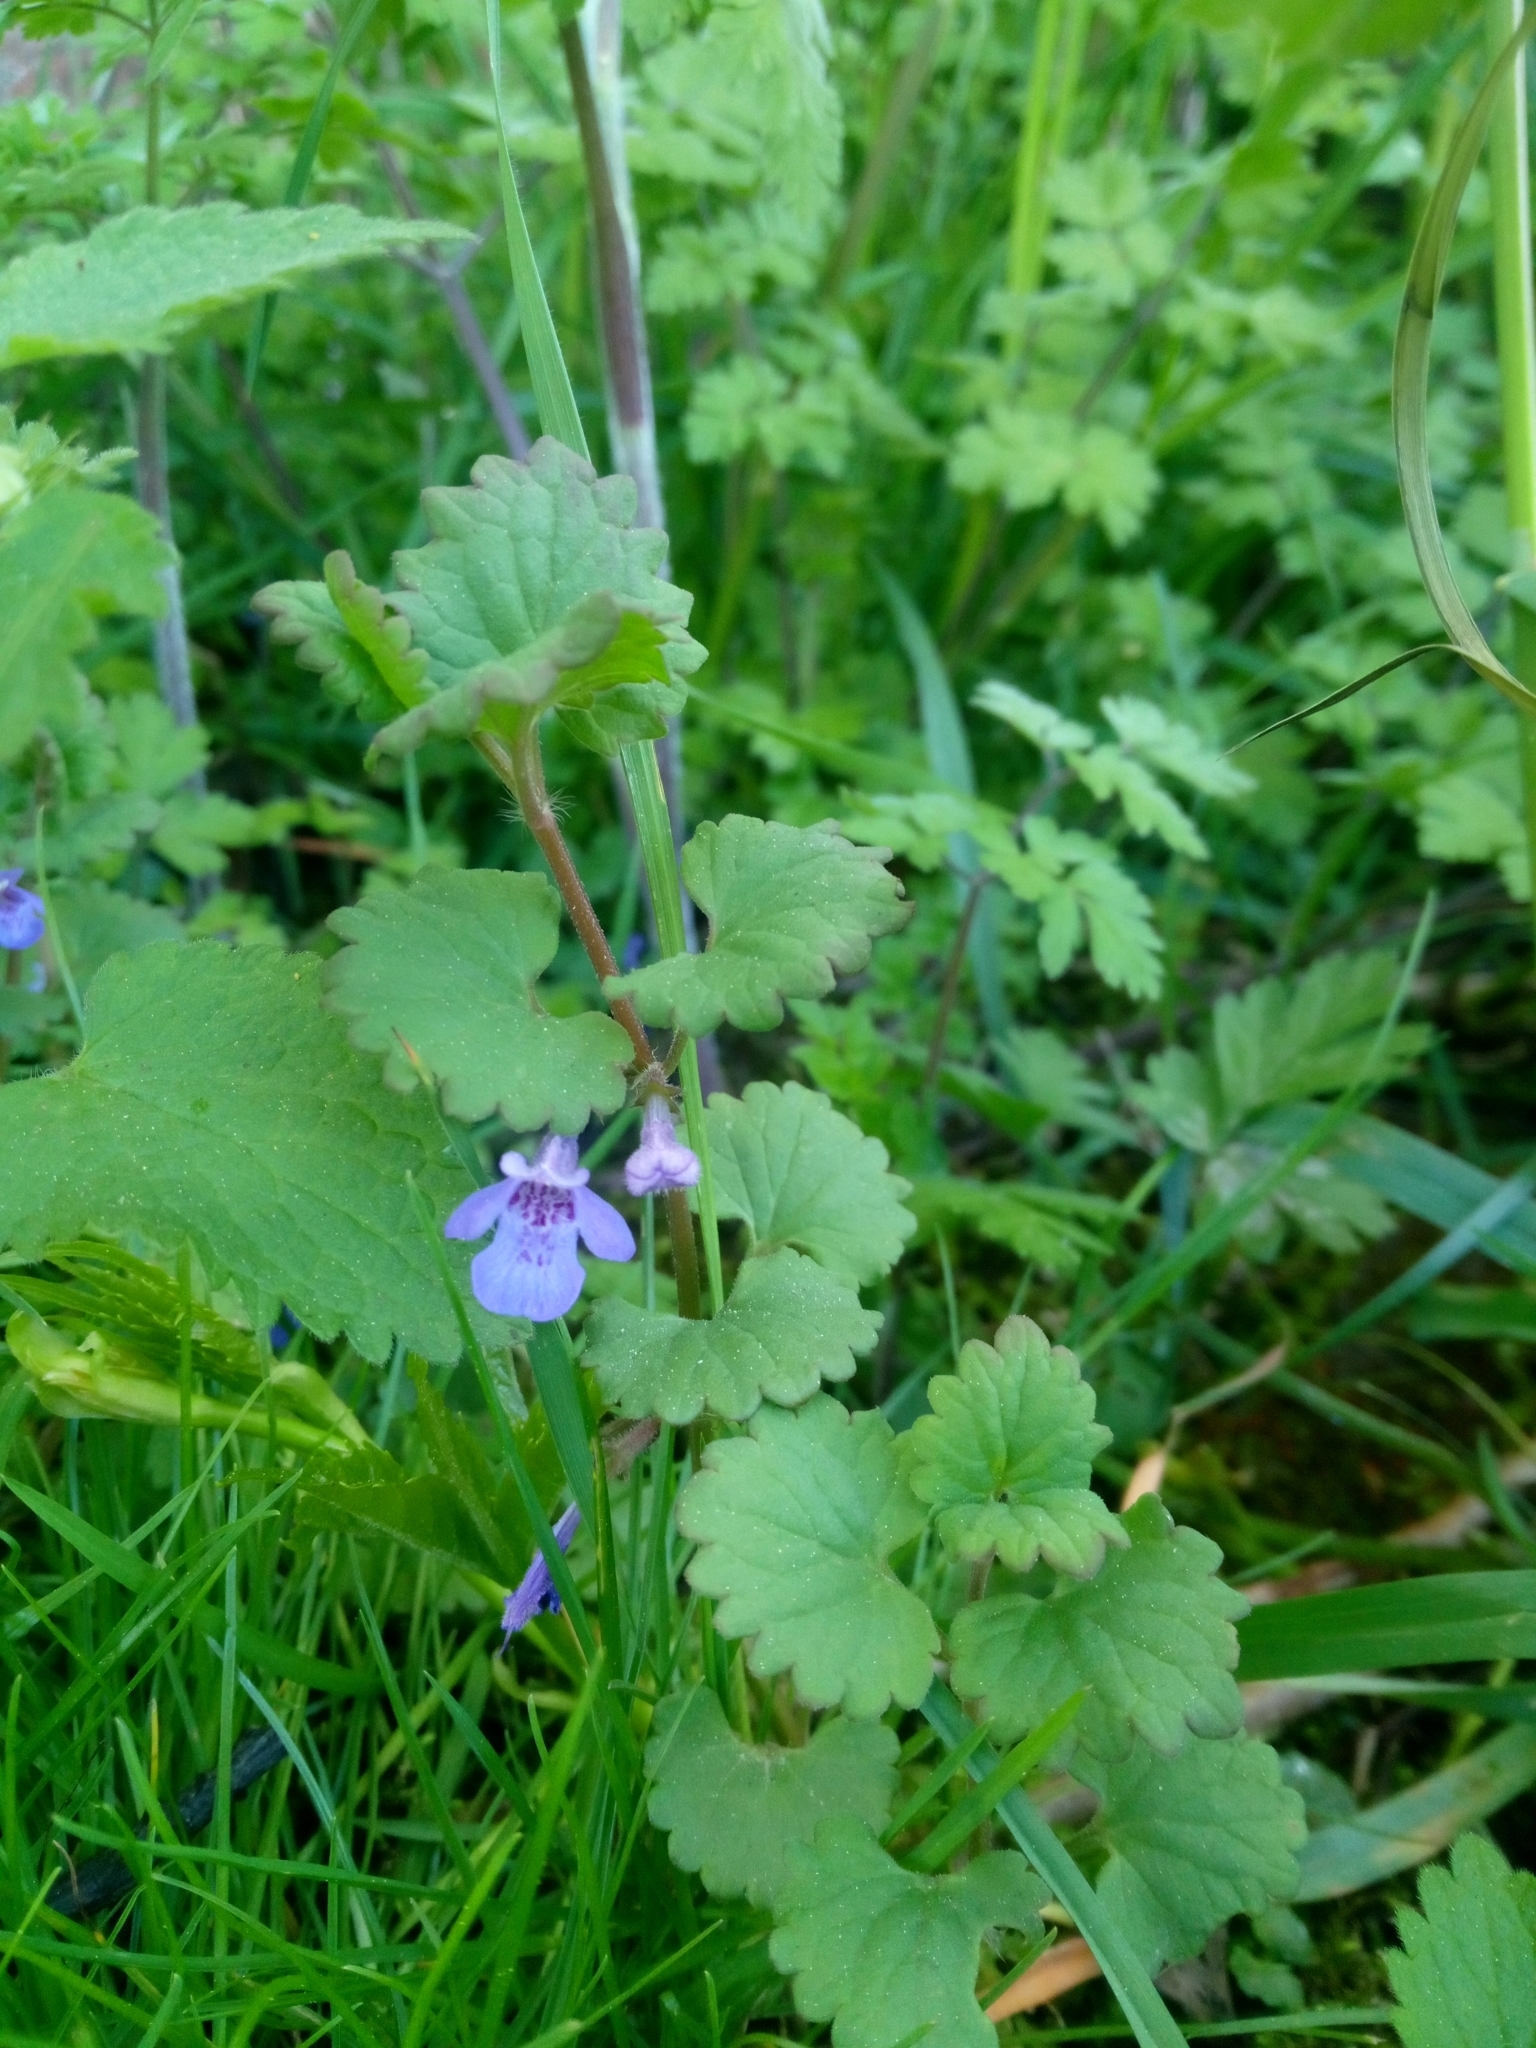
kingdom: Plantae
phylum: Tracheophyta
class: Magnoliopsida
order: Lamiales
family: Lamiaceae
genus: Glechoma
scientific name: Glechoma hederacea
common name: Ground ivy
